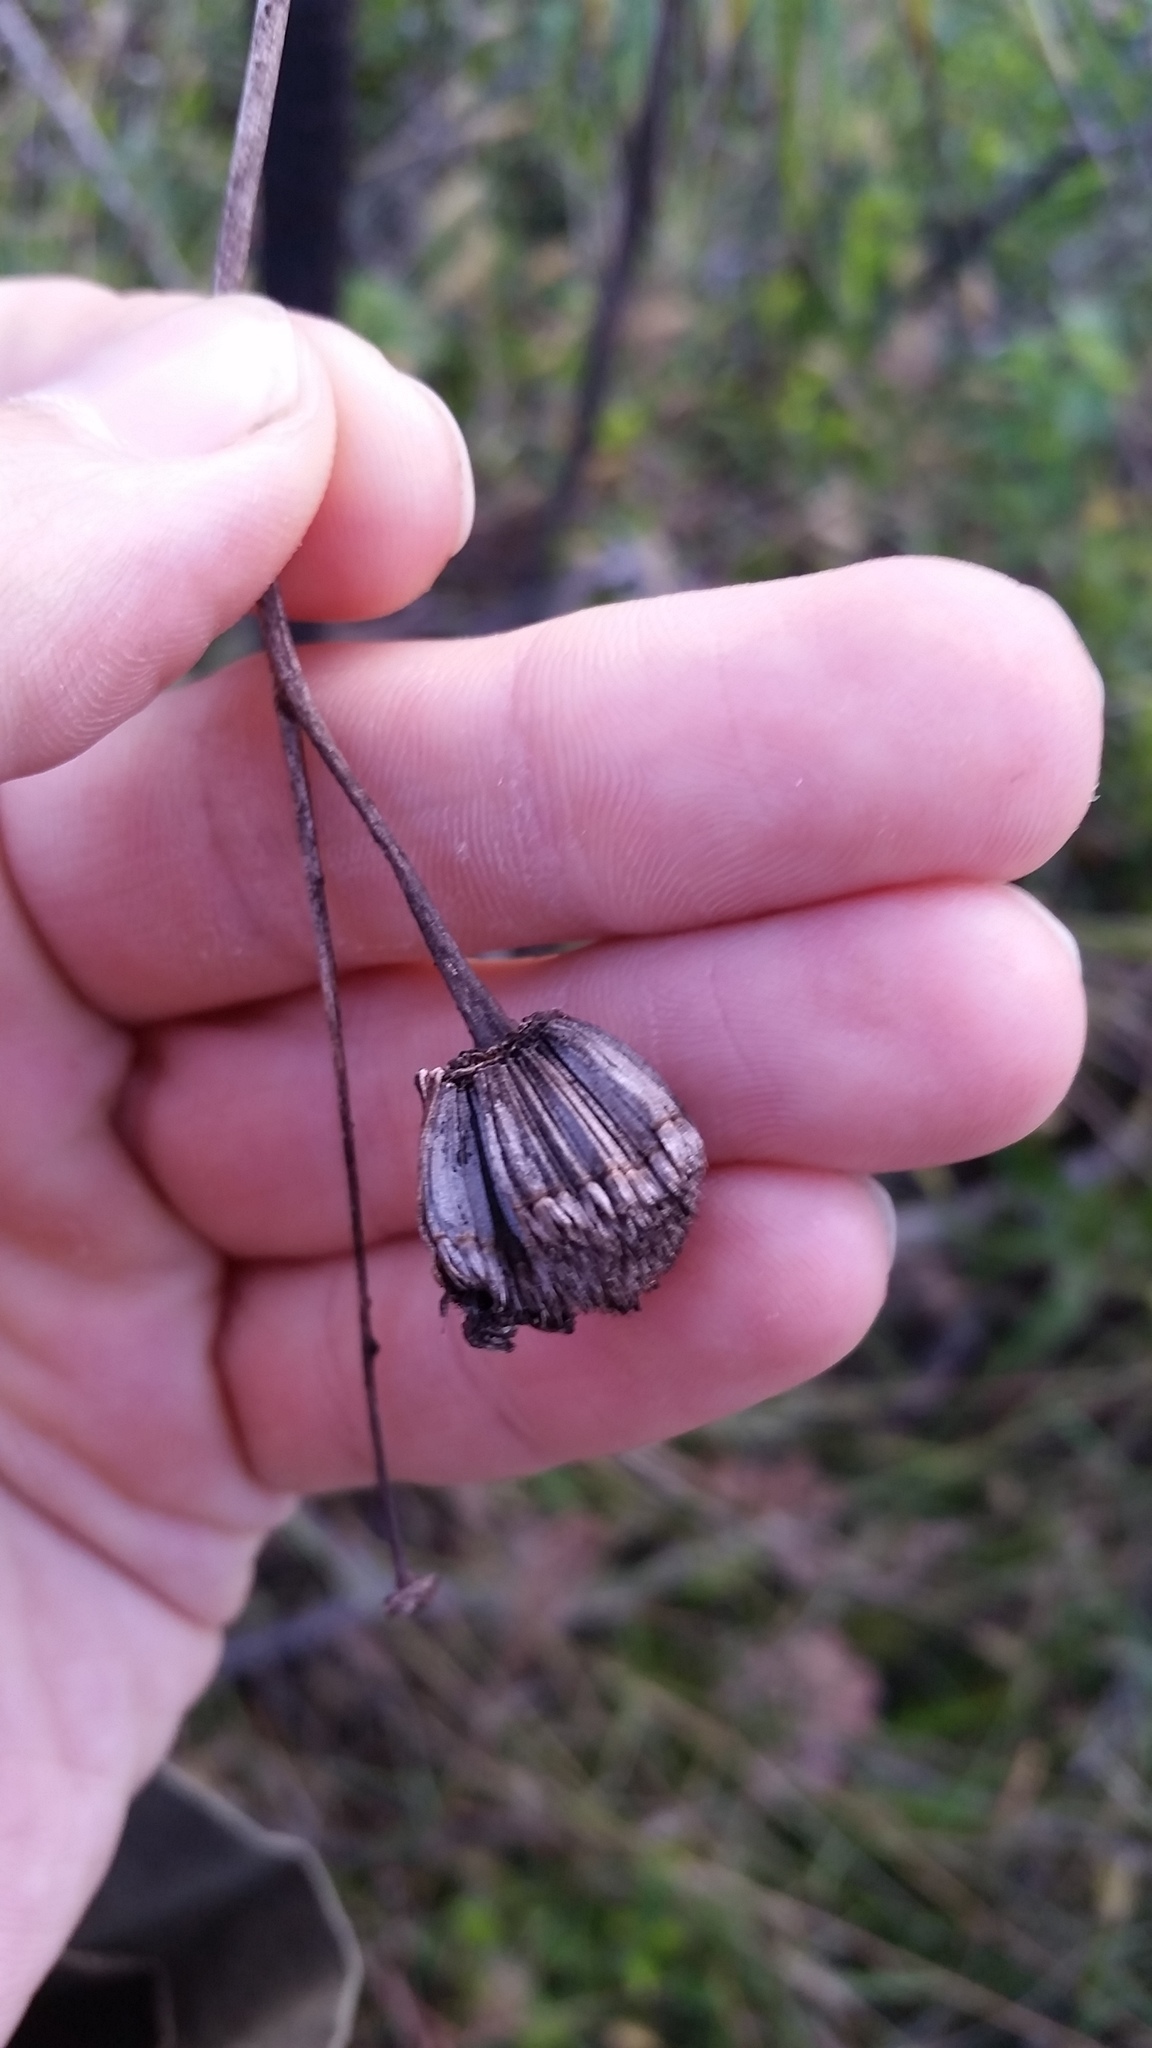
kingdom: Plantae
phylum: Tracheophyta
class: Magnoliopsida
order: Asterales
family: Asteraceae
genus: Wilkesia
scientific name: Wilkesia gymnoxiphium
